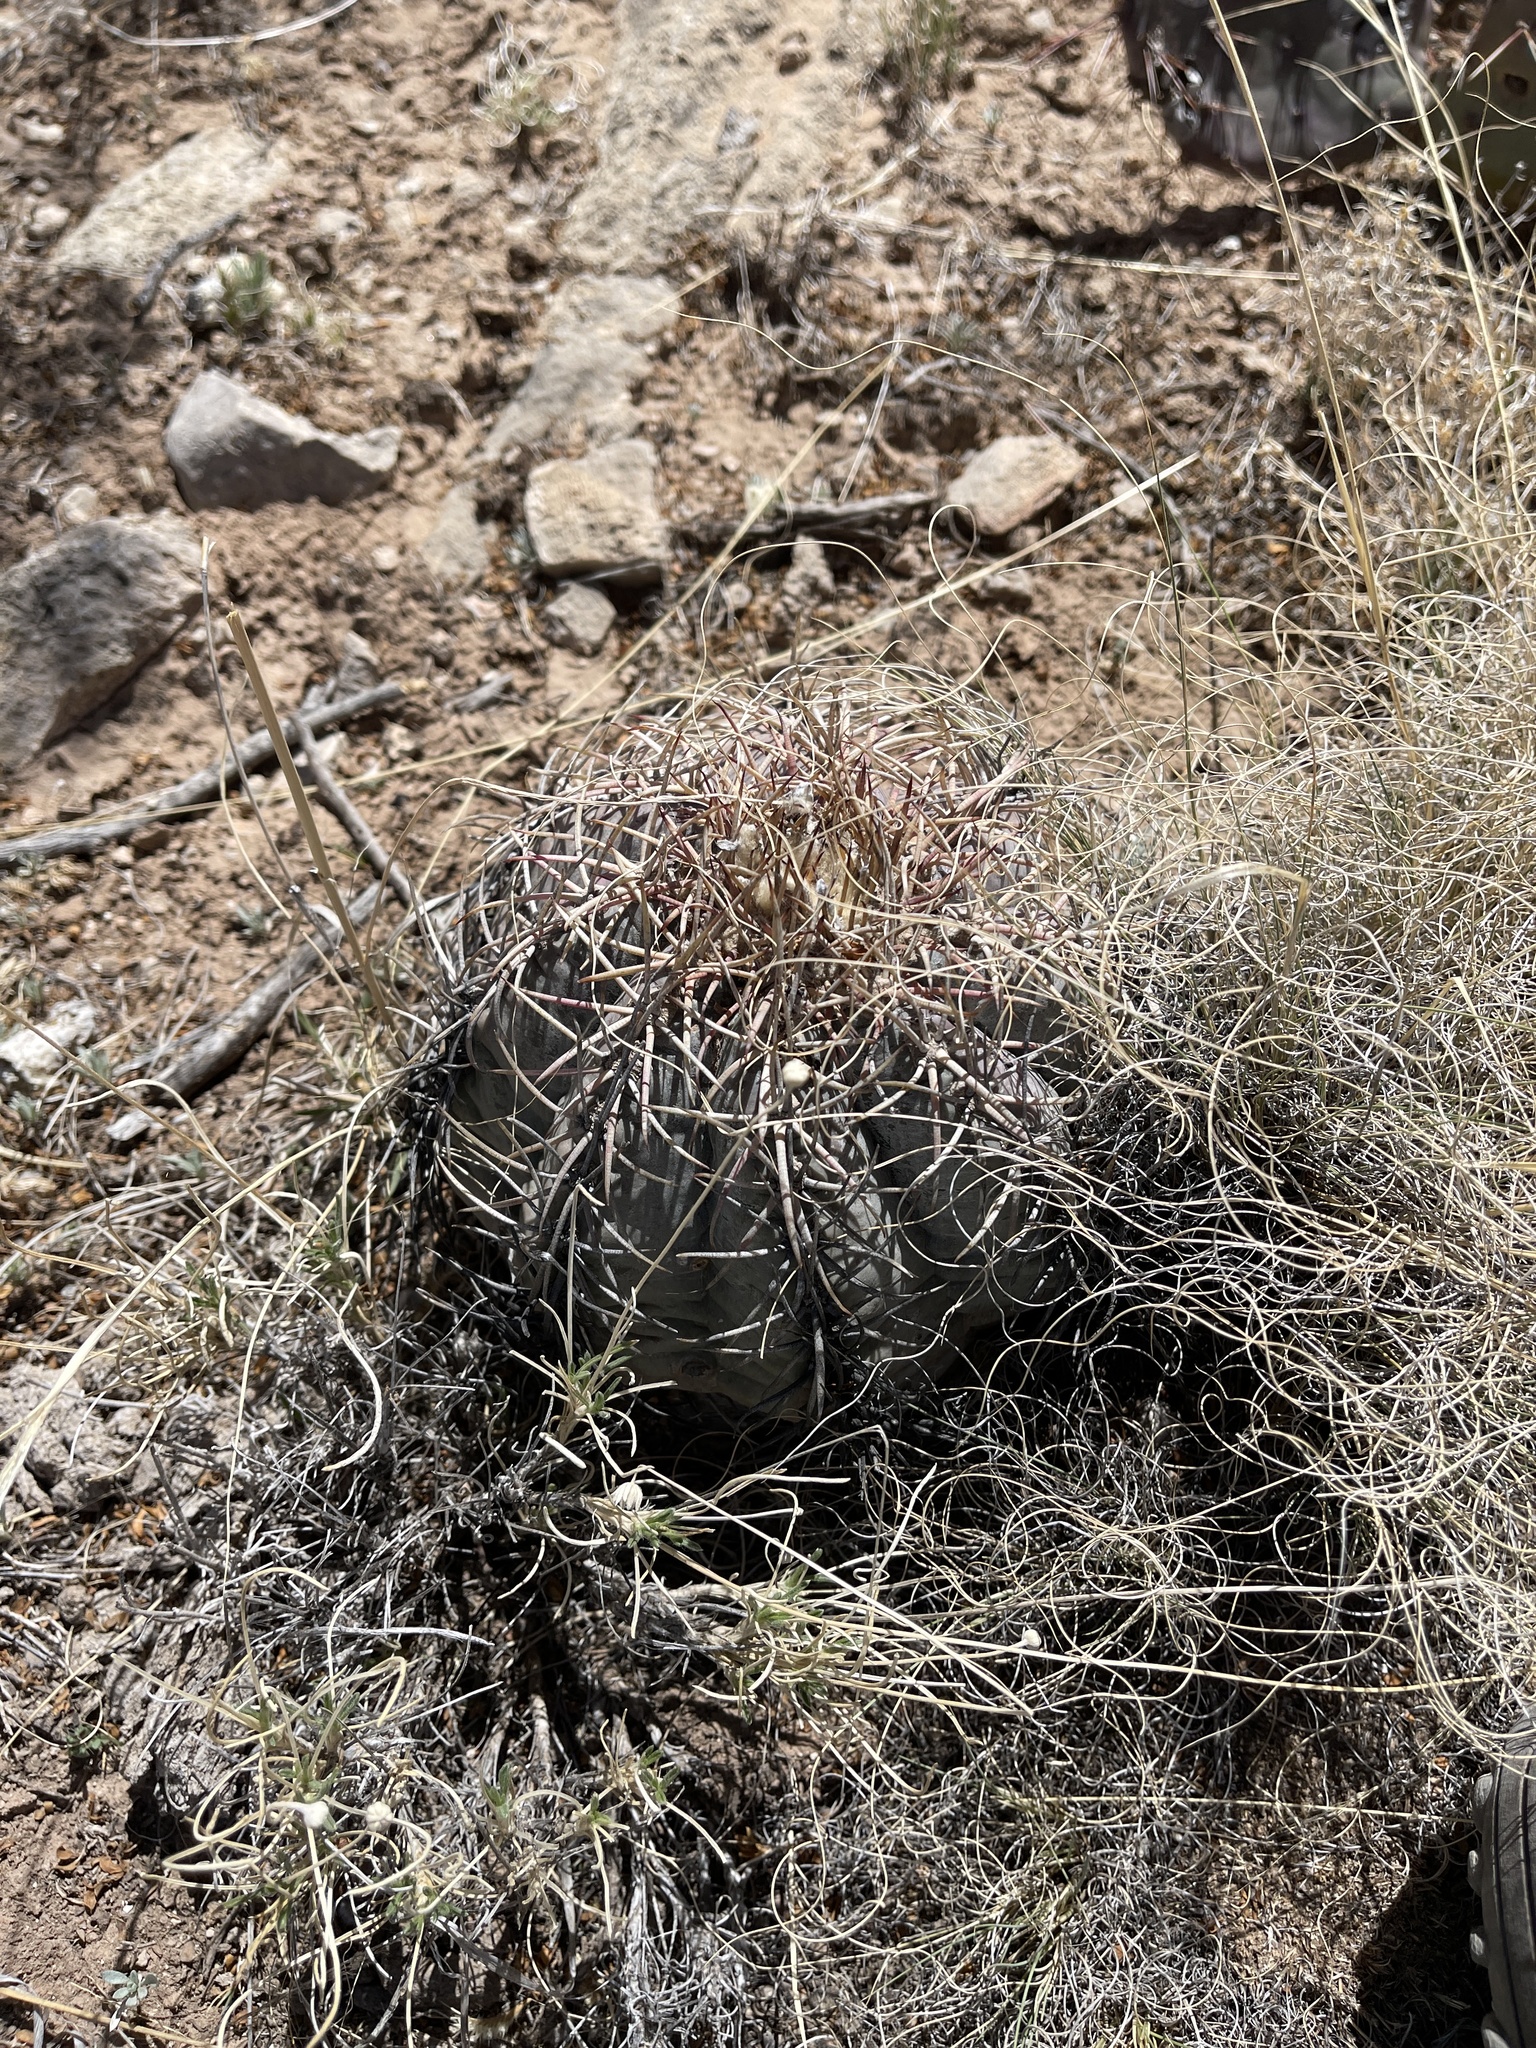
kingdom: Plantae
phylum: Tracheophyta
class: Magnoliopsida
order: Caryophyllales
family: Cactaceae
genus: Echinocactus
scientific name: Echinocactus horizonthalonius
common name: Devilshead
